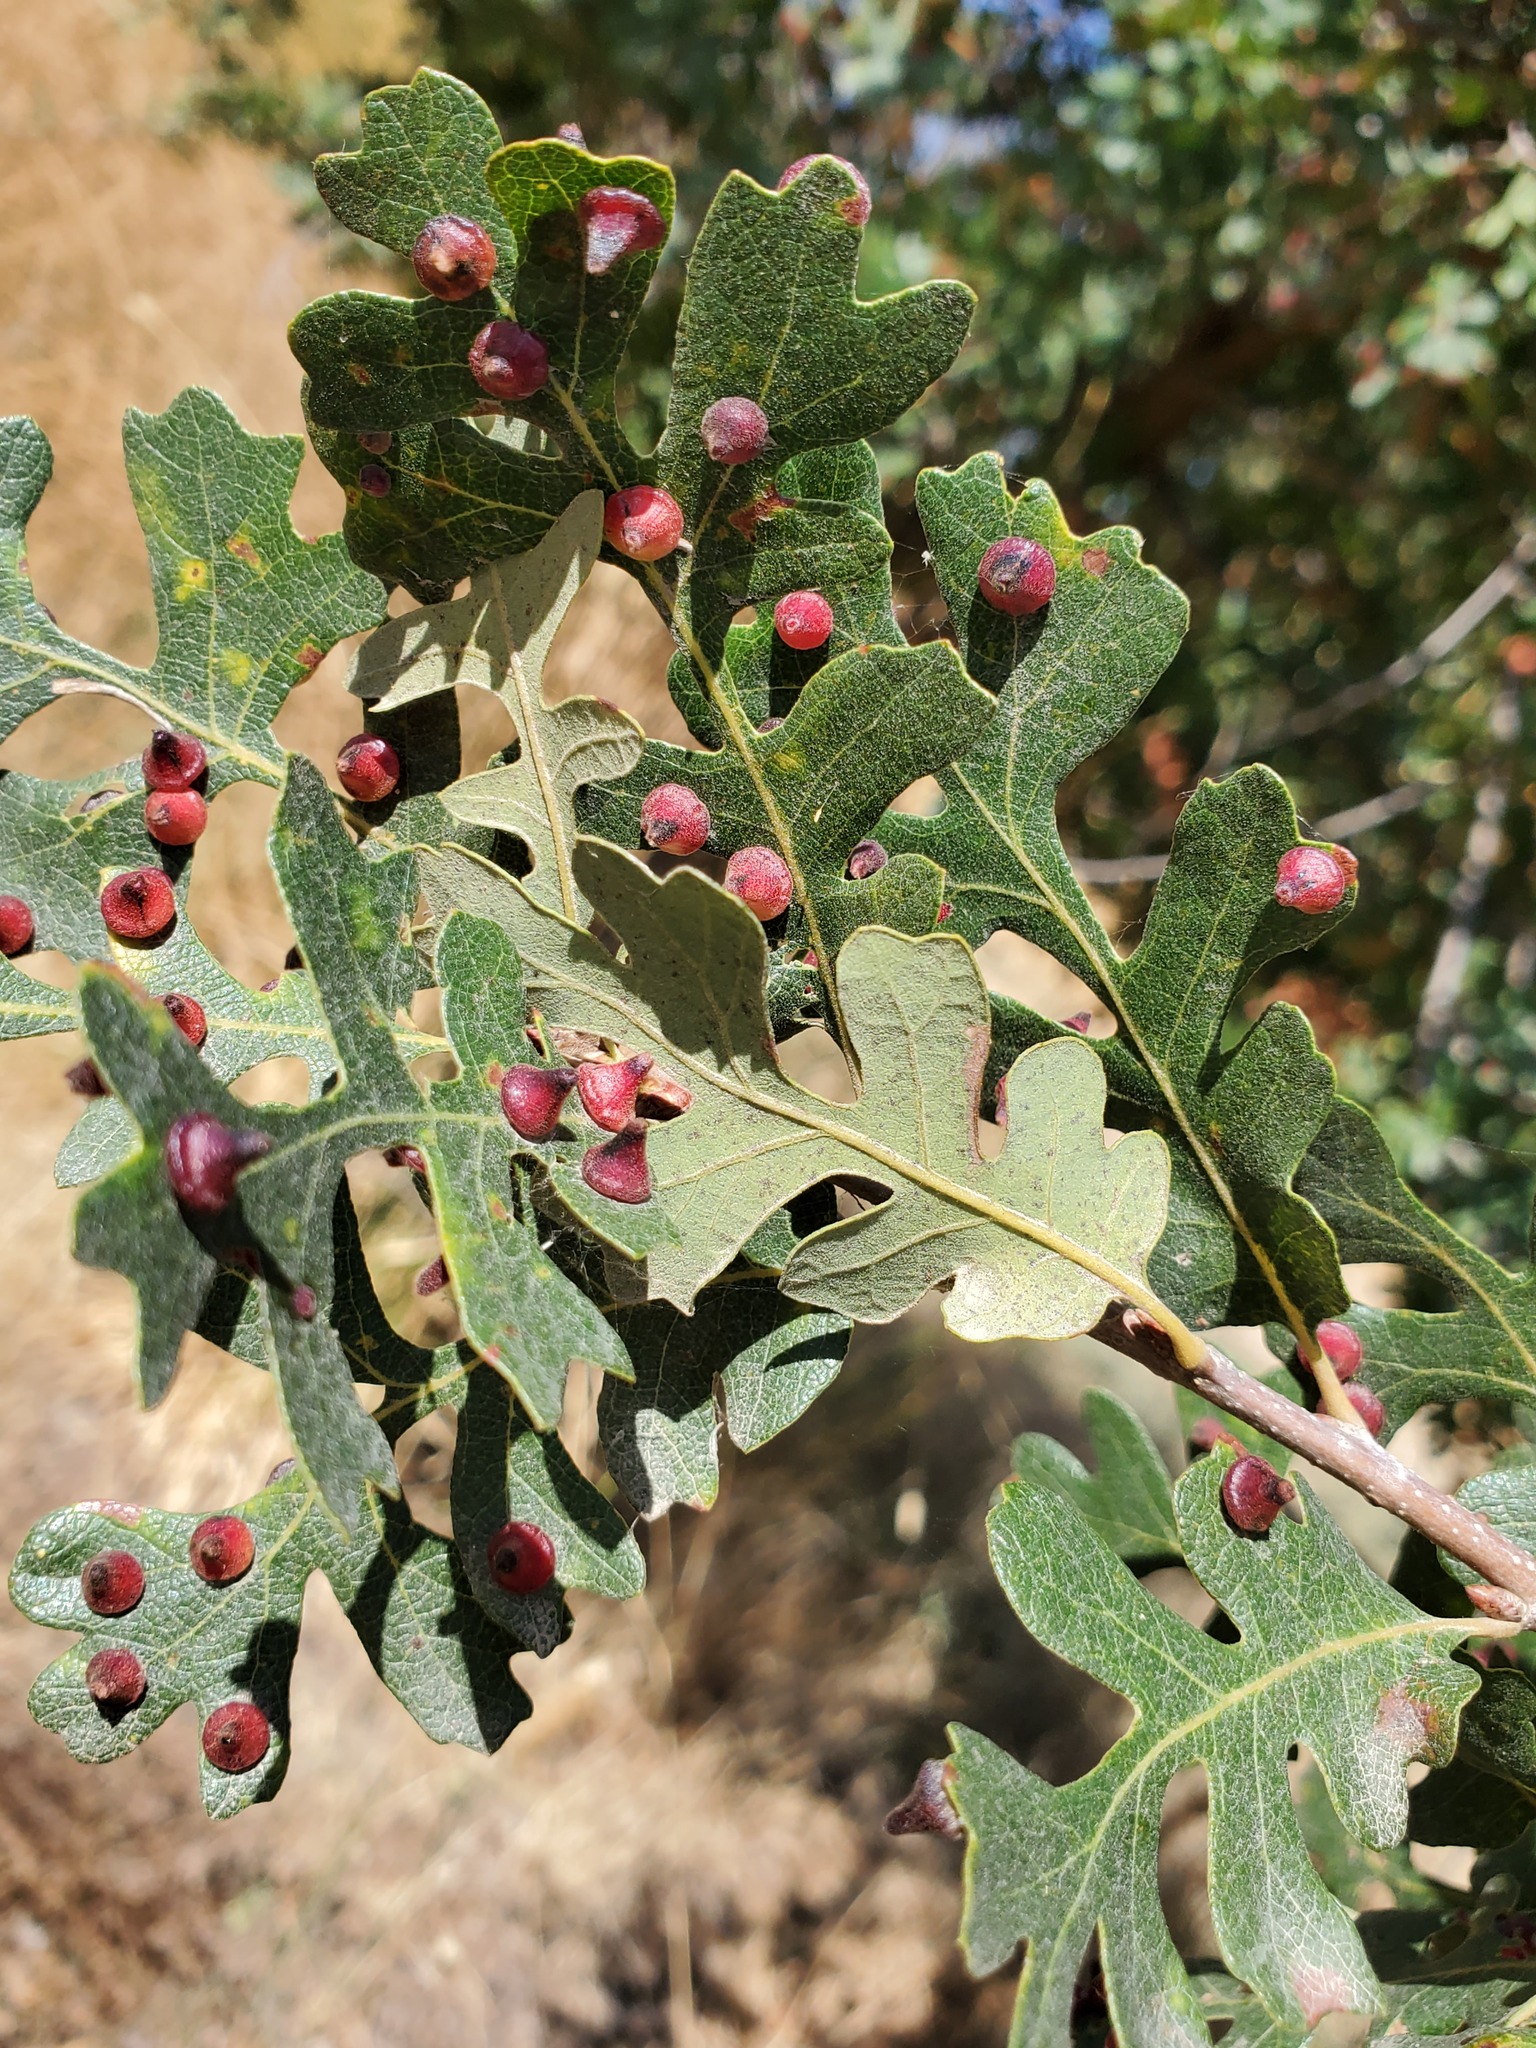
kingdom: Animalia
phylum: Arthropoda
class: Insecta
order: Hymenoptera
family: Cynipidae
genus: Andricus
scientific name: Andricus
